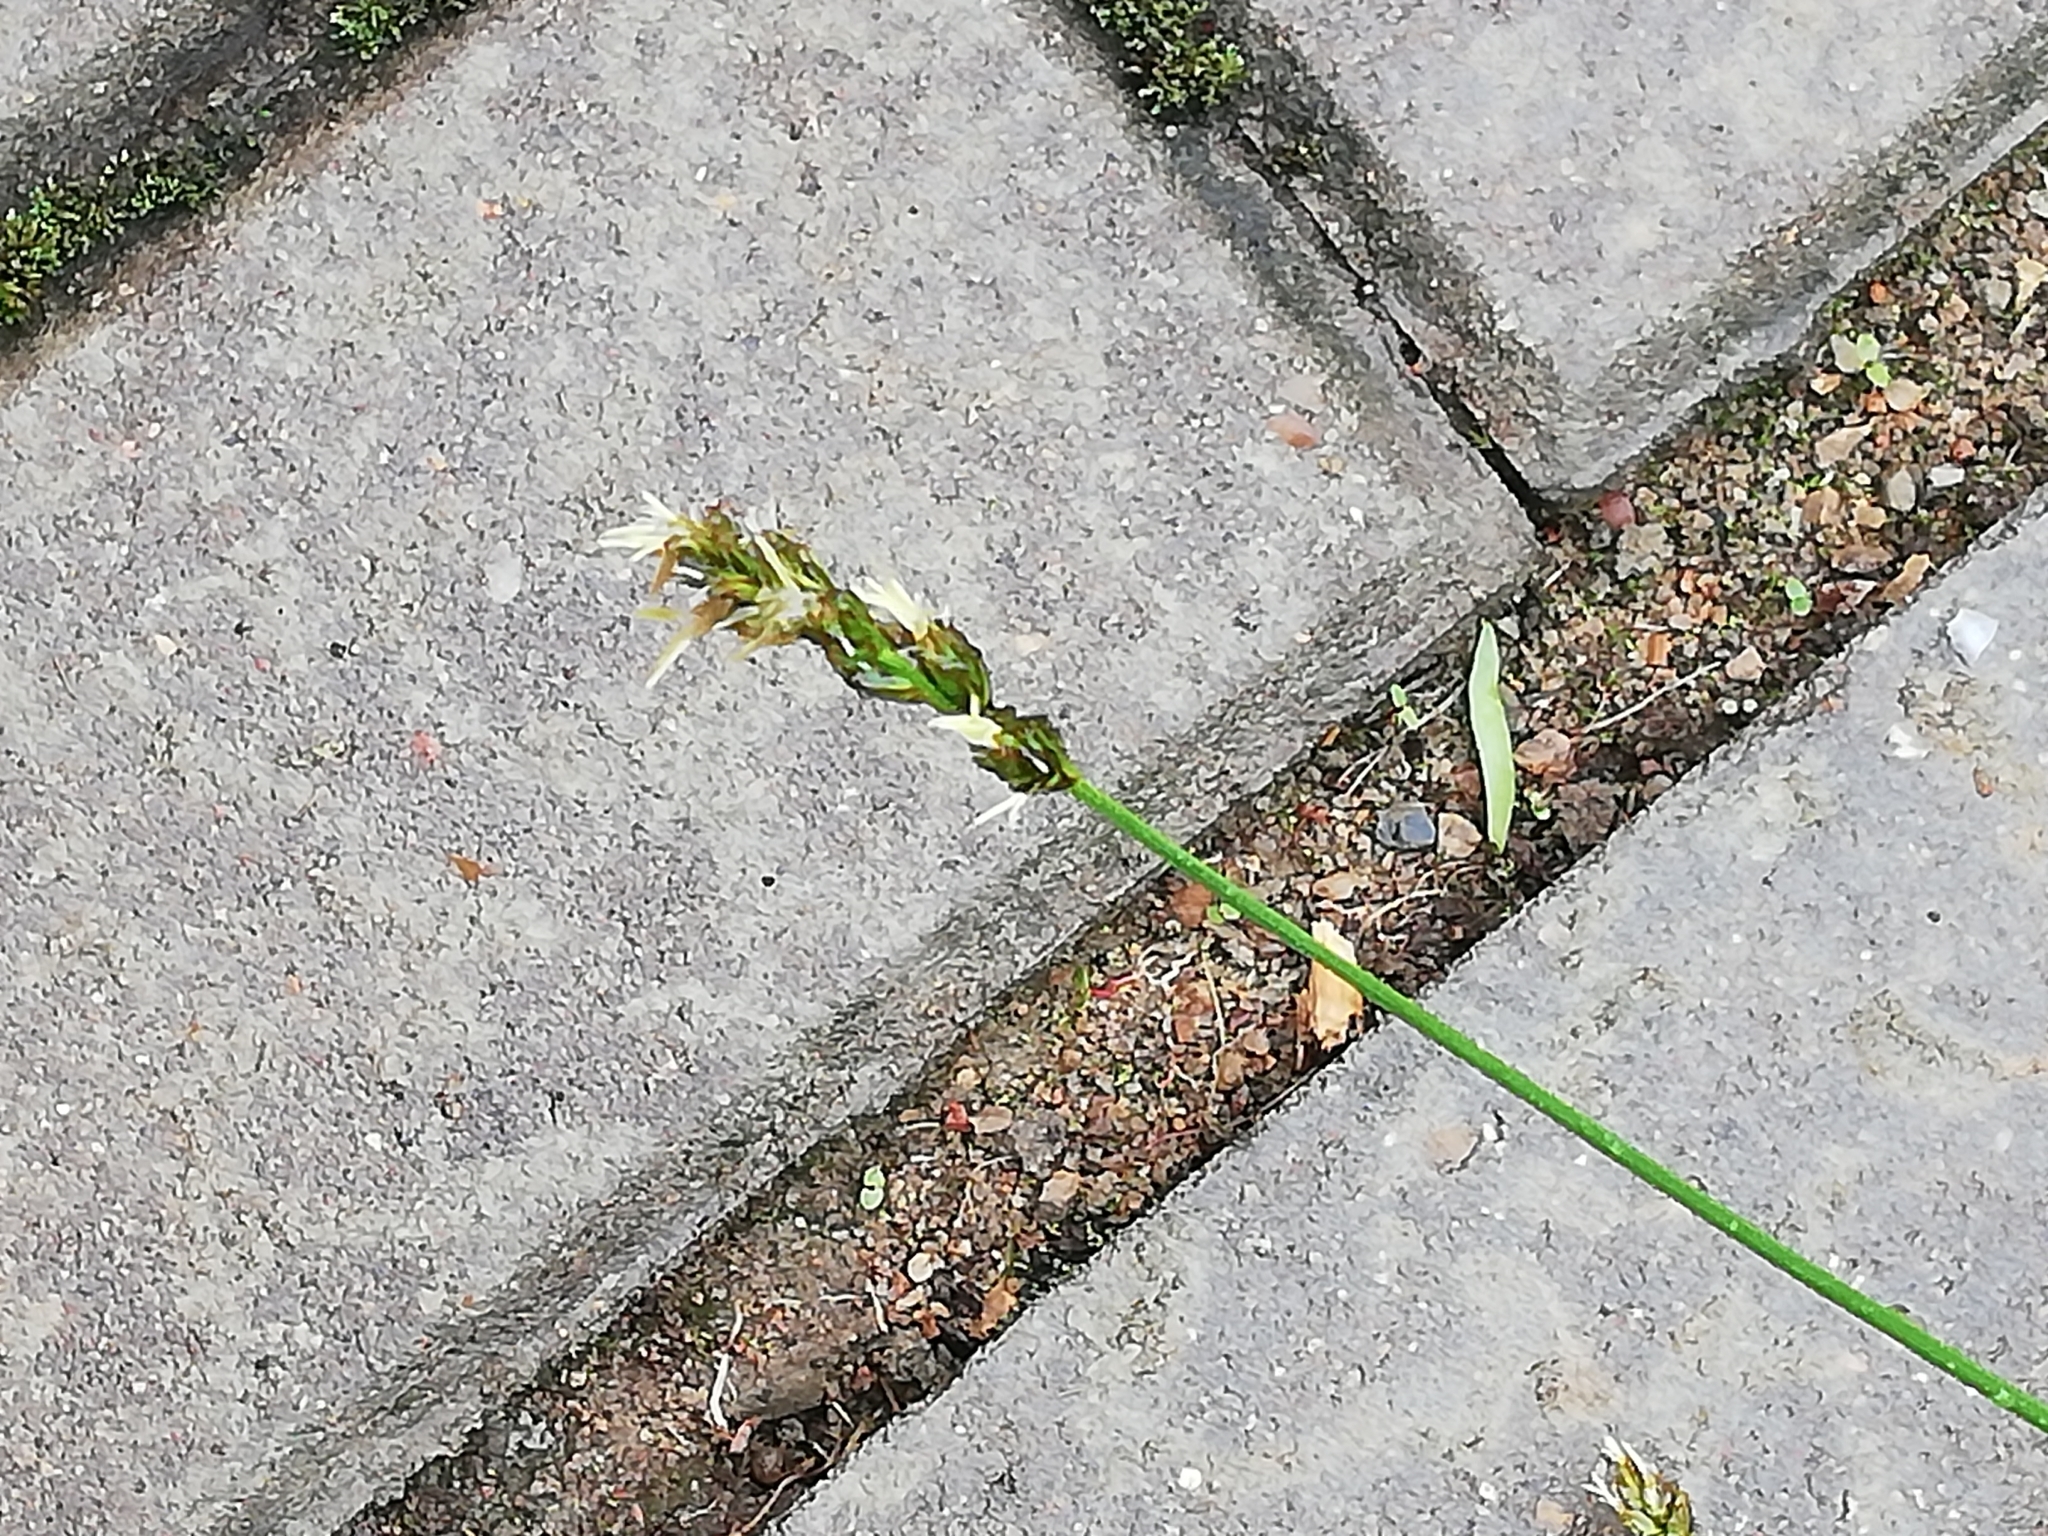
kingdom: Plantae
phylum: Tracheophyta
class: Liliopsida
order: Poales
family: Cyperaceae
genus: Carex
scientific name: Carex spicata
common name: Spiked sedge
